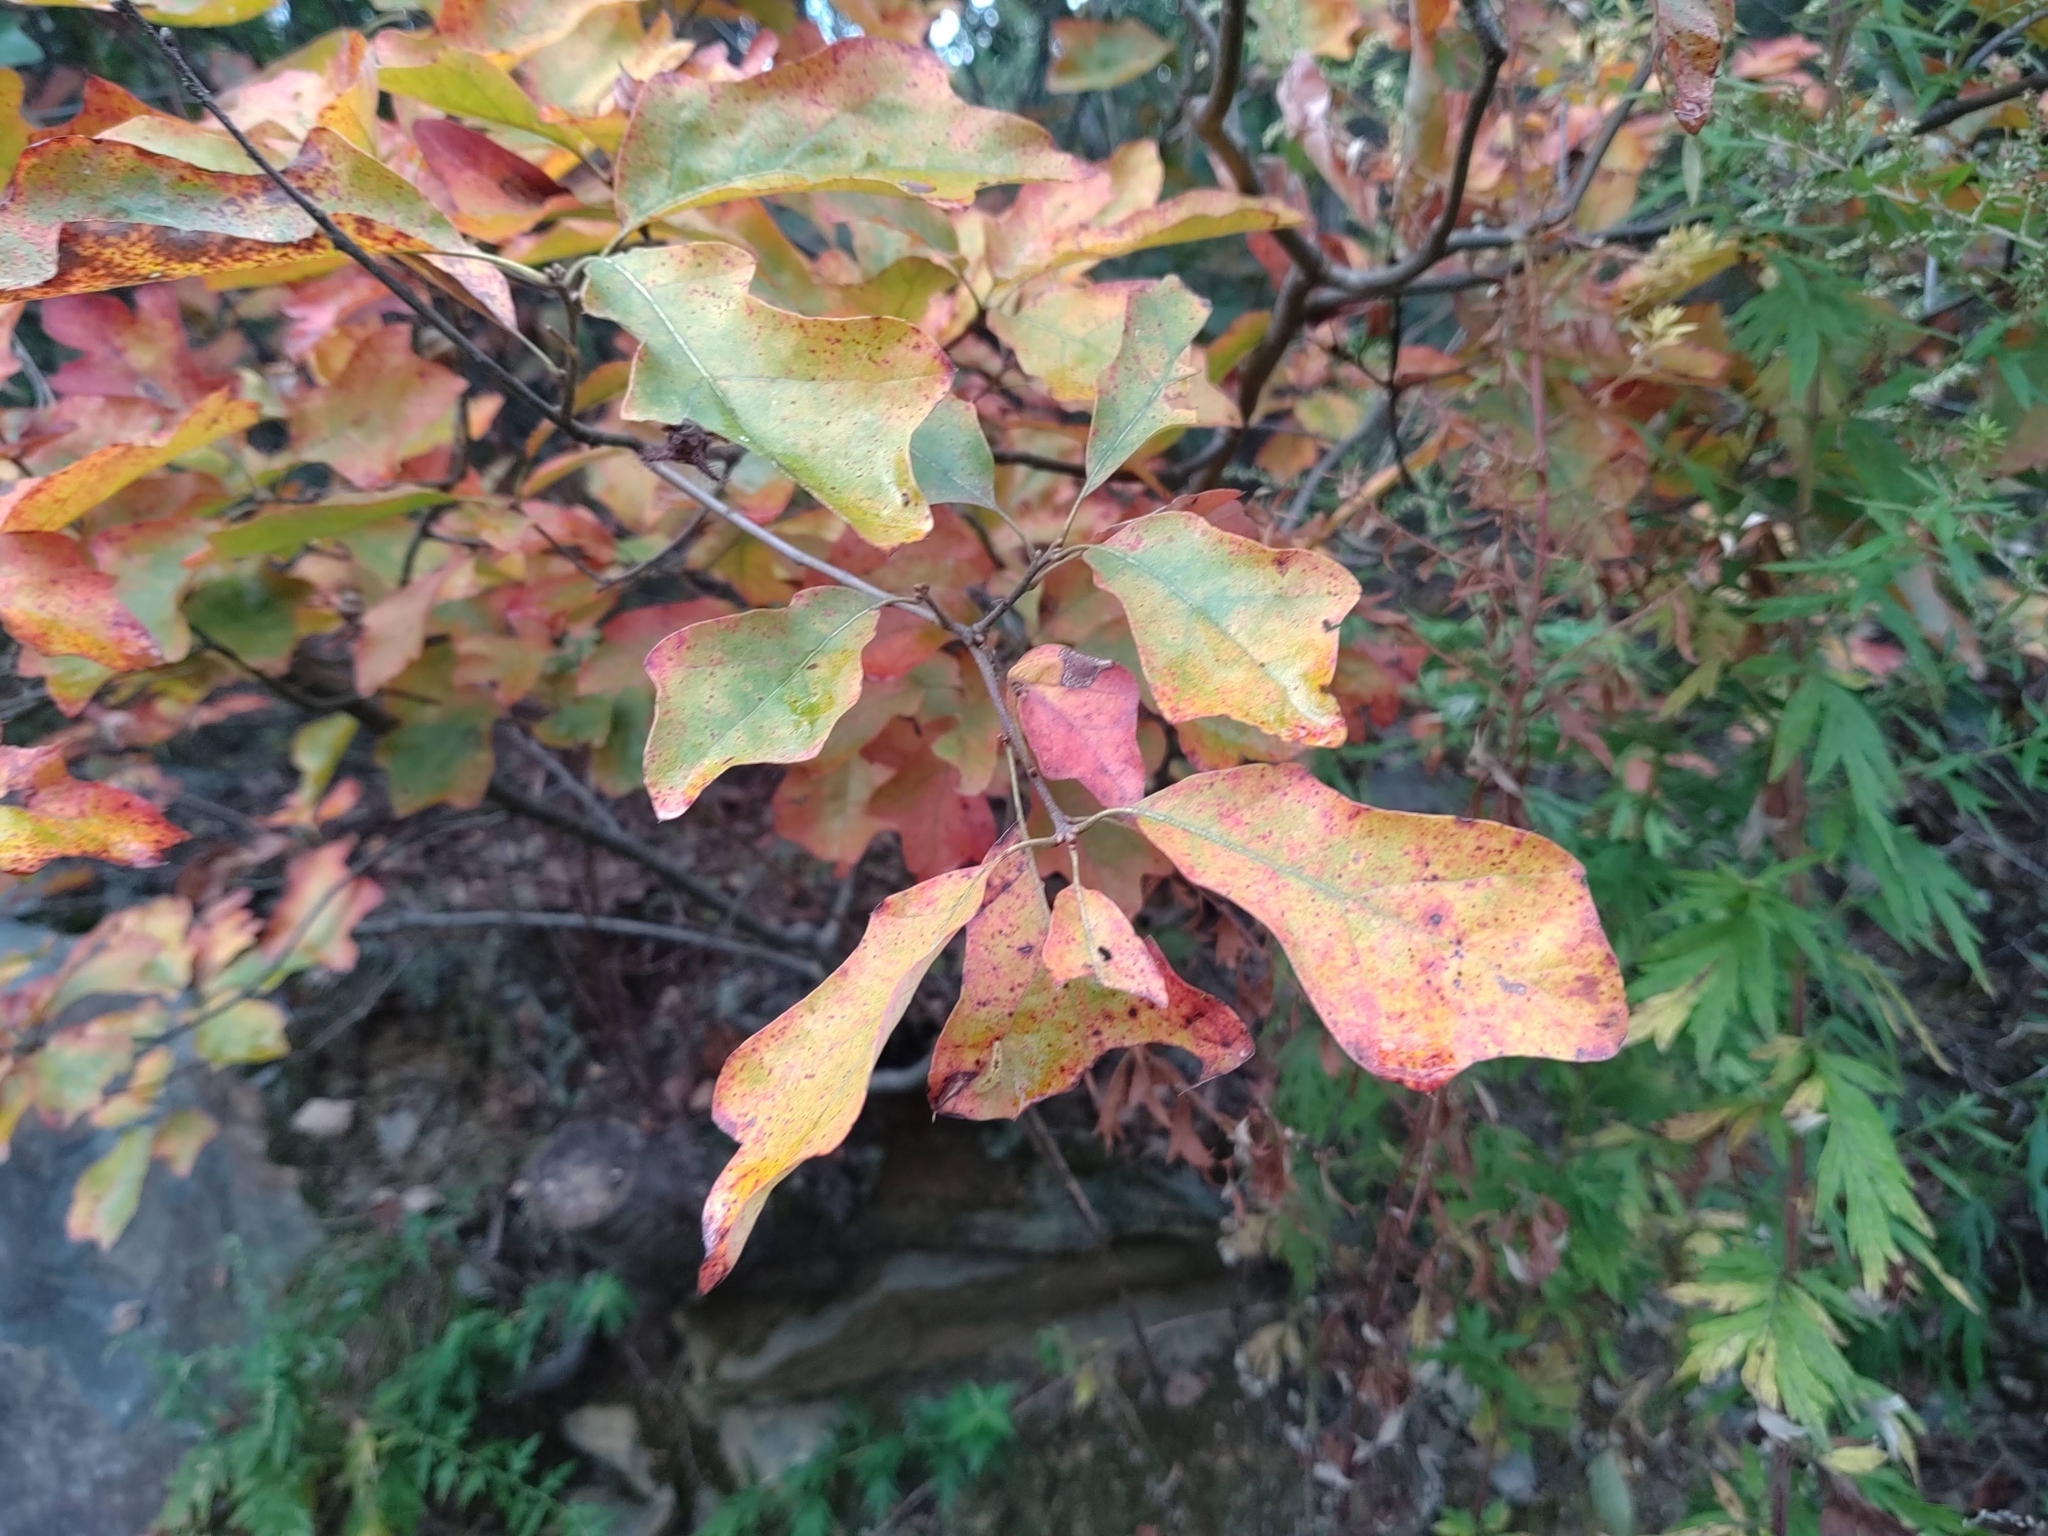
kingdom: Plantae
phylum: Tracheophyta
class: Magnoliopsida
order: Fagales
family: Fagaceae
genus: Quercus
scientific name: Quercus ilicifolia
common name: Bear oak
